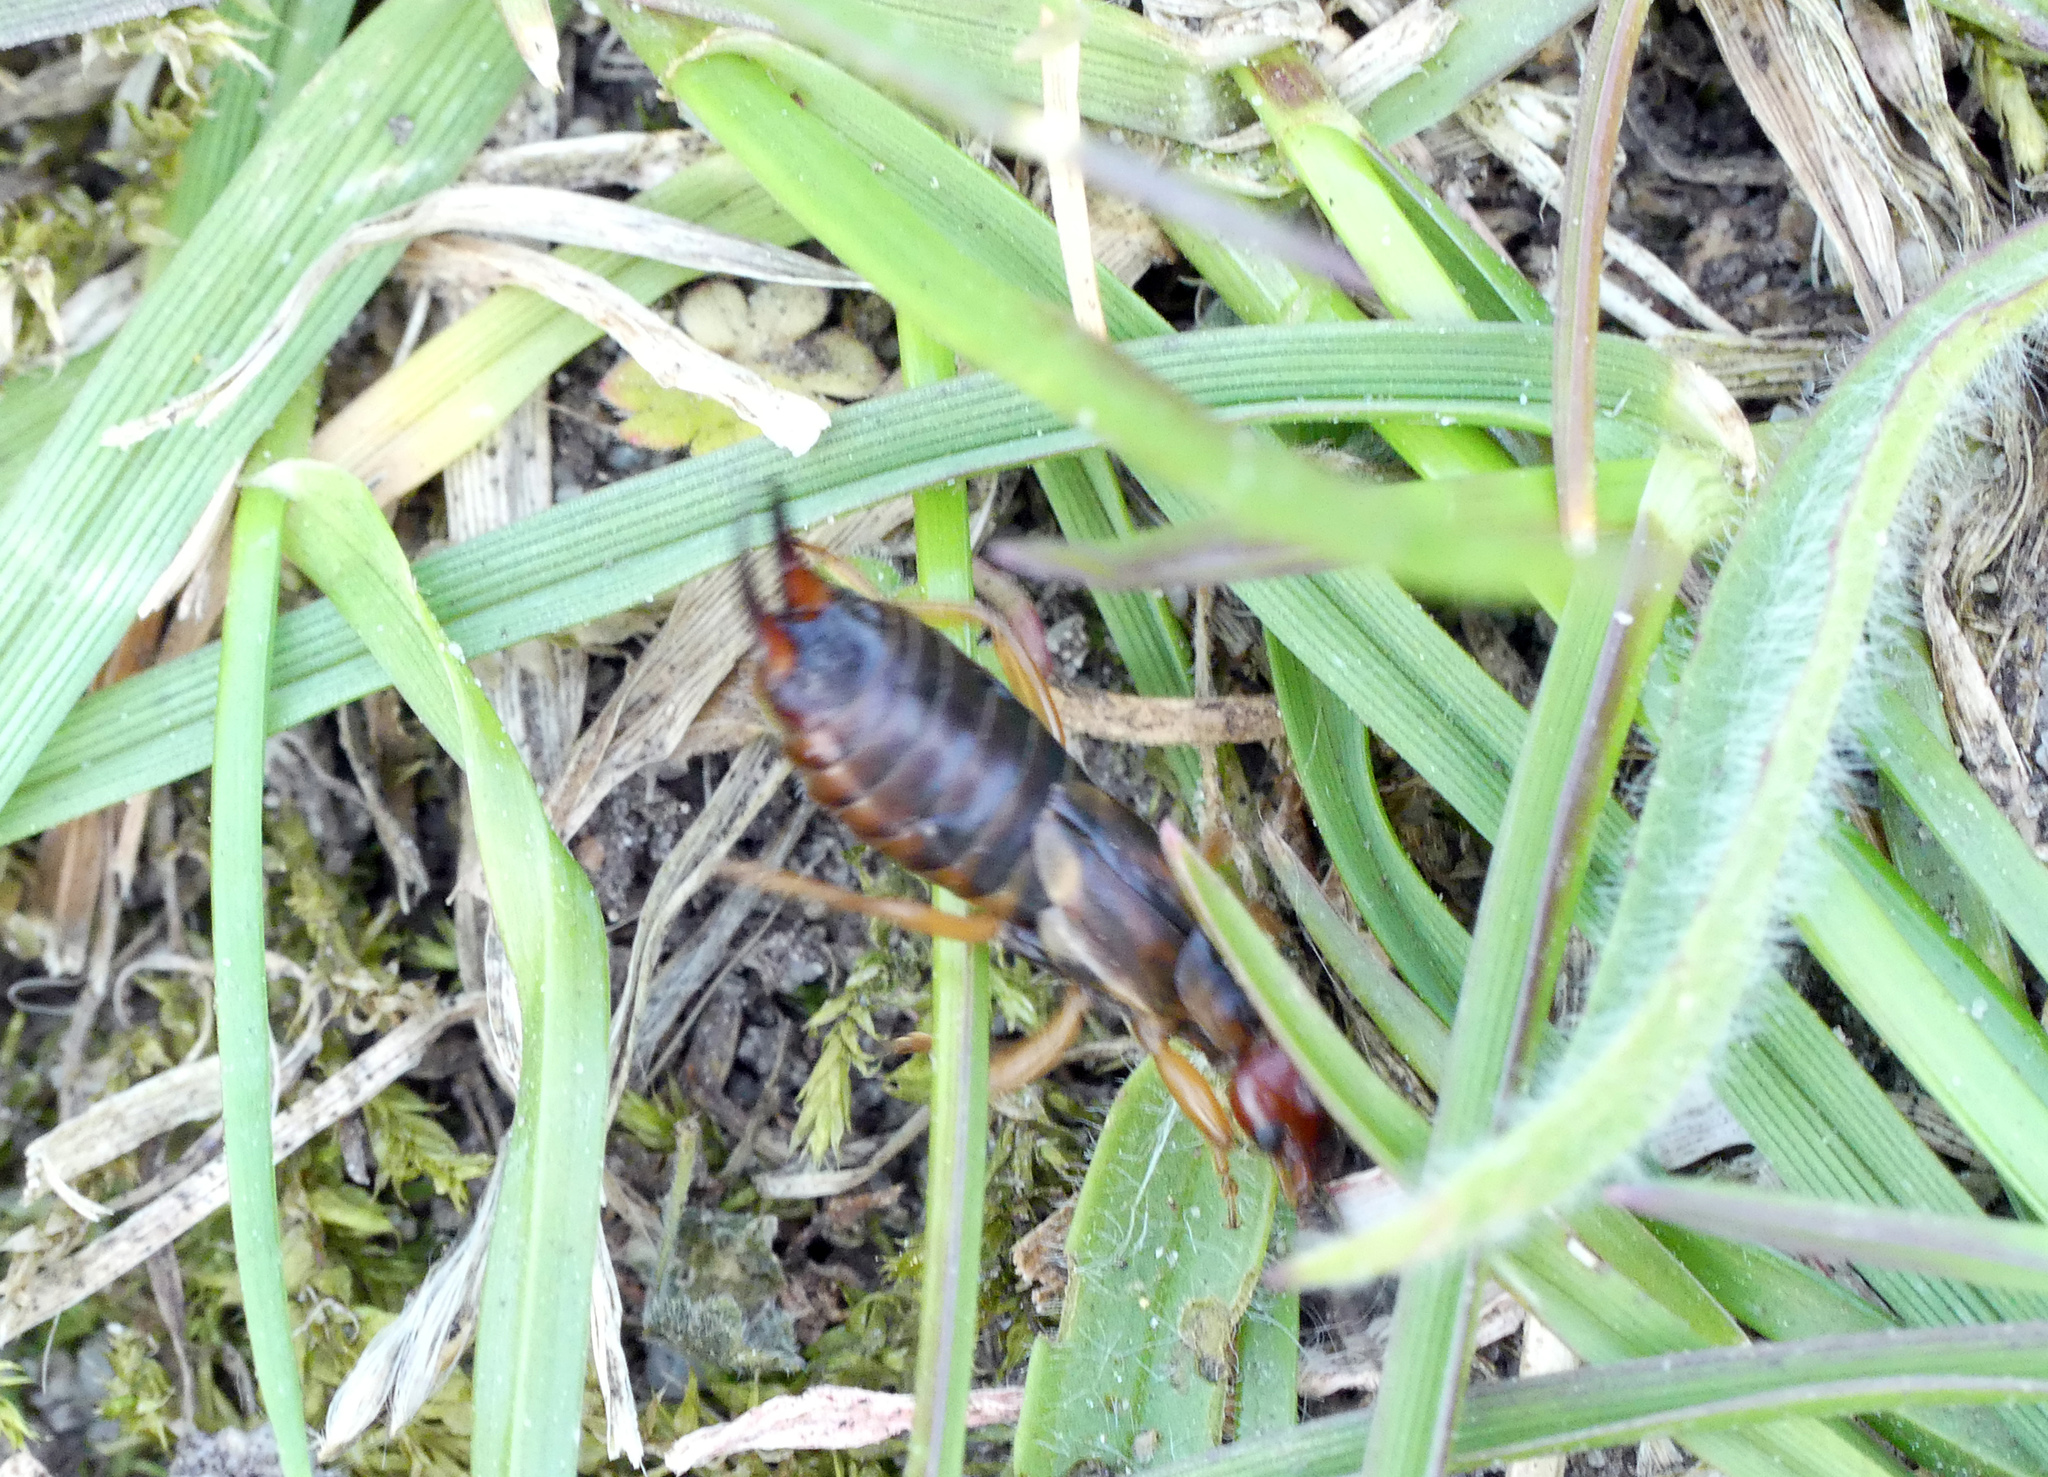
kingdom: Animalia
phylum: Arthropoda
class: Insecta
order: Dermaptera
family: Forficulidae
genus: Forficula
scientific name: Forficula
